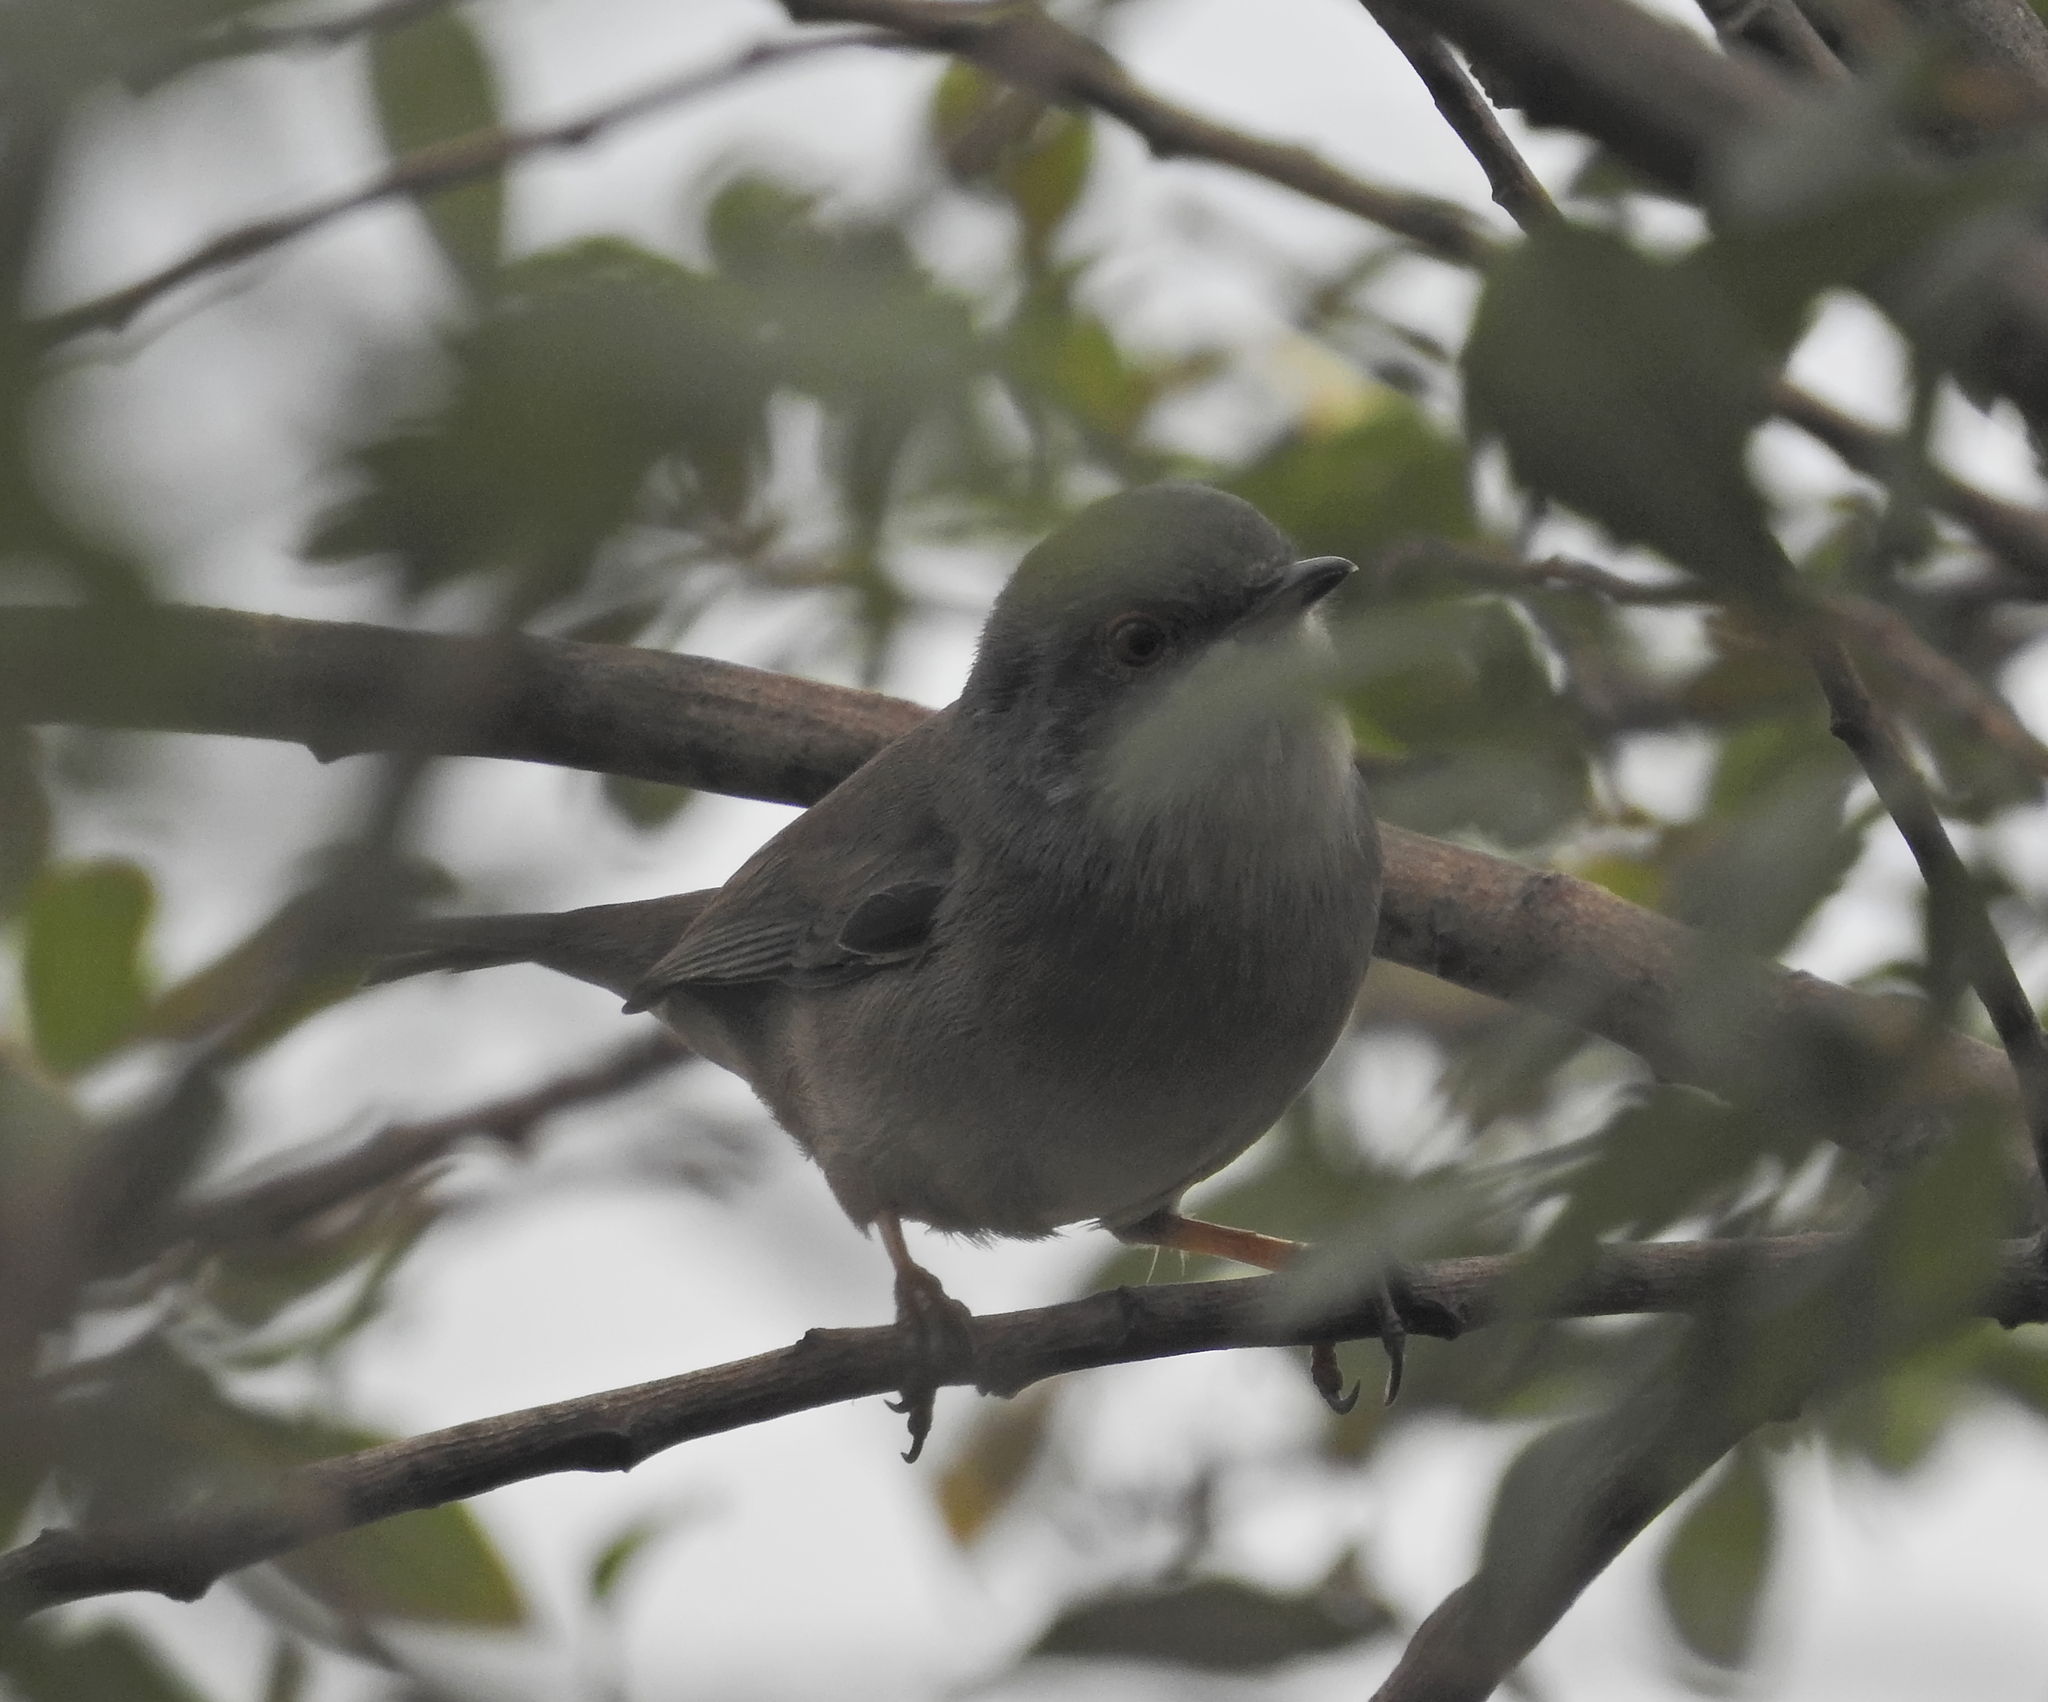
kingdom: Animalia
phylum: Chordata
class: Aves
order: Passeriformes
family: Sylviidae
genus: Curruca
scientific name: Curruca melanocephala
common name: Sardinian warbler
